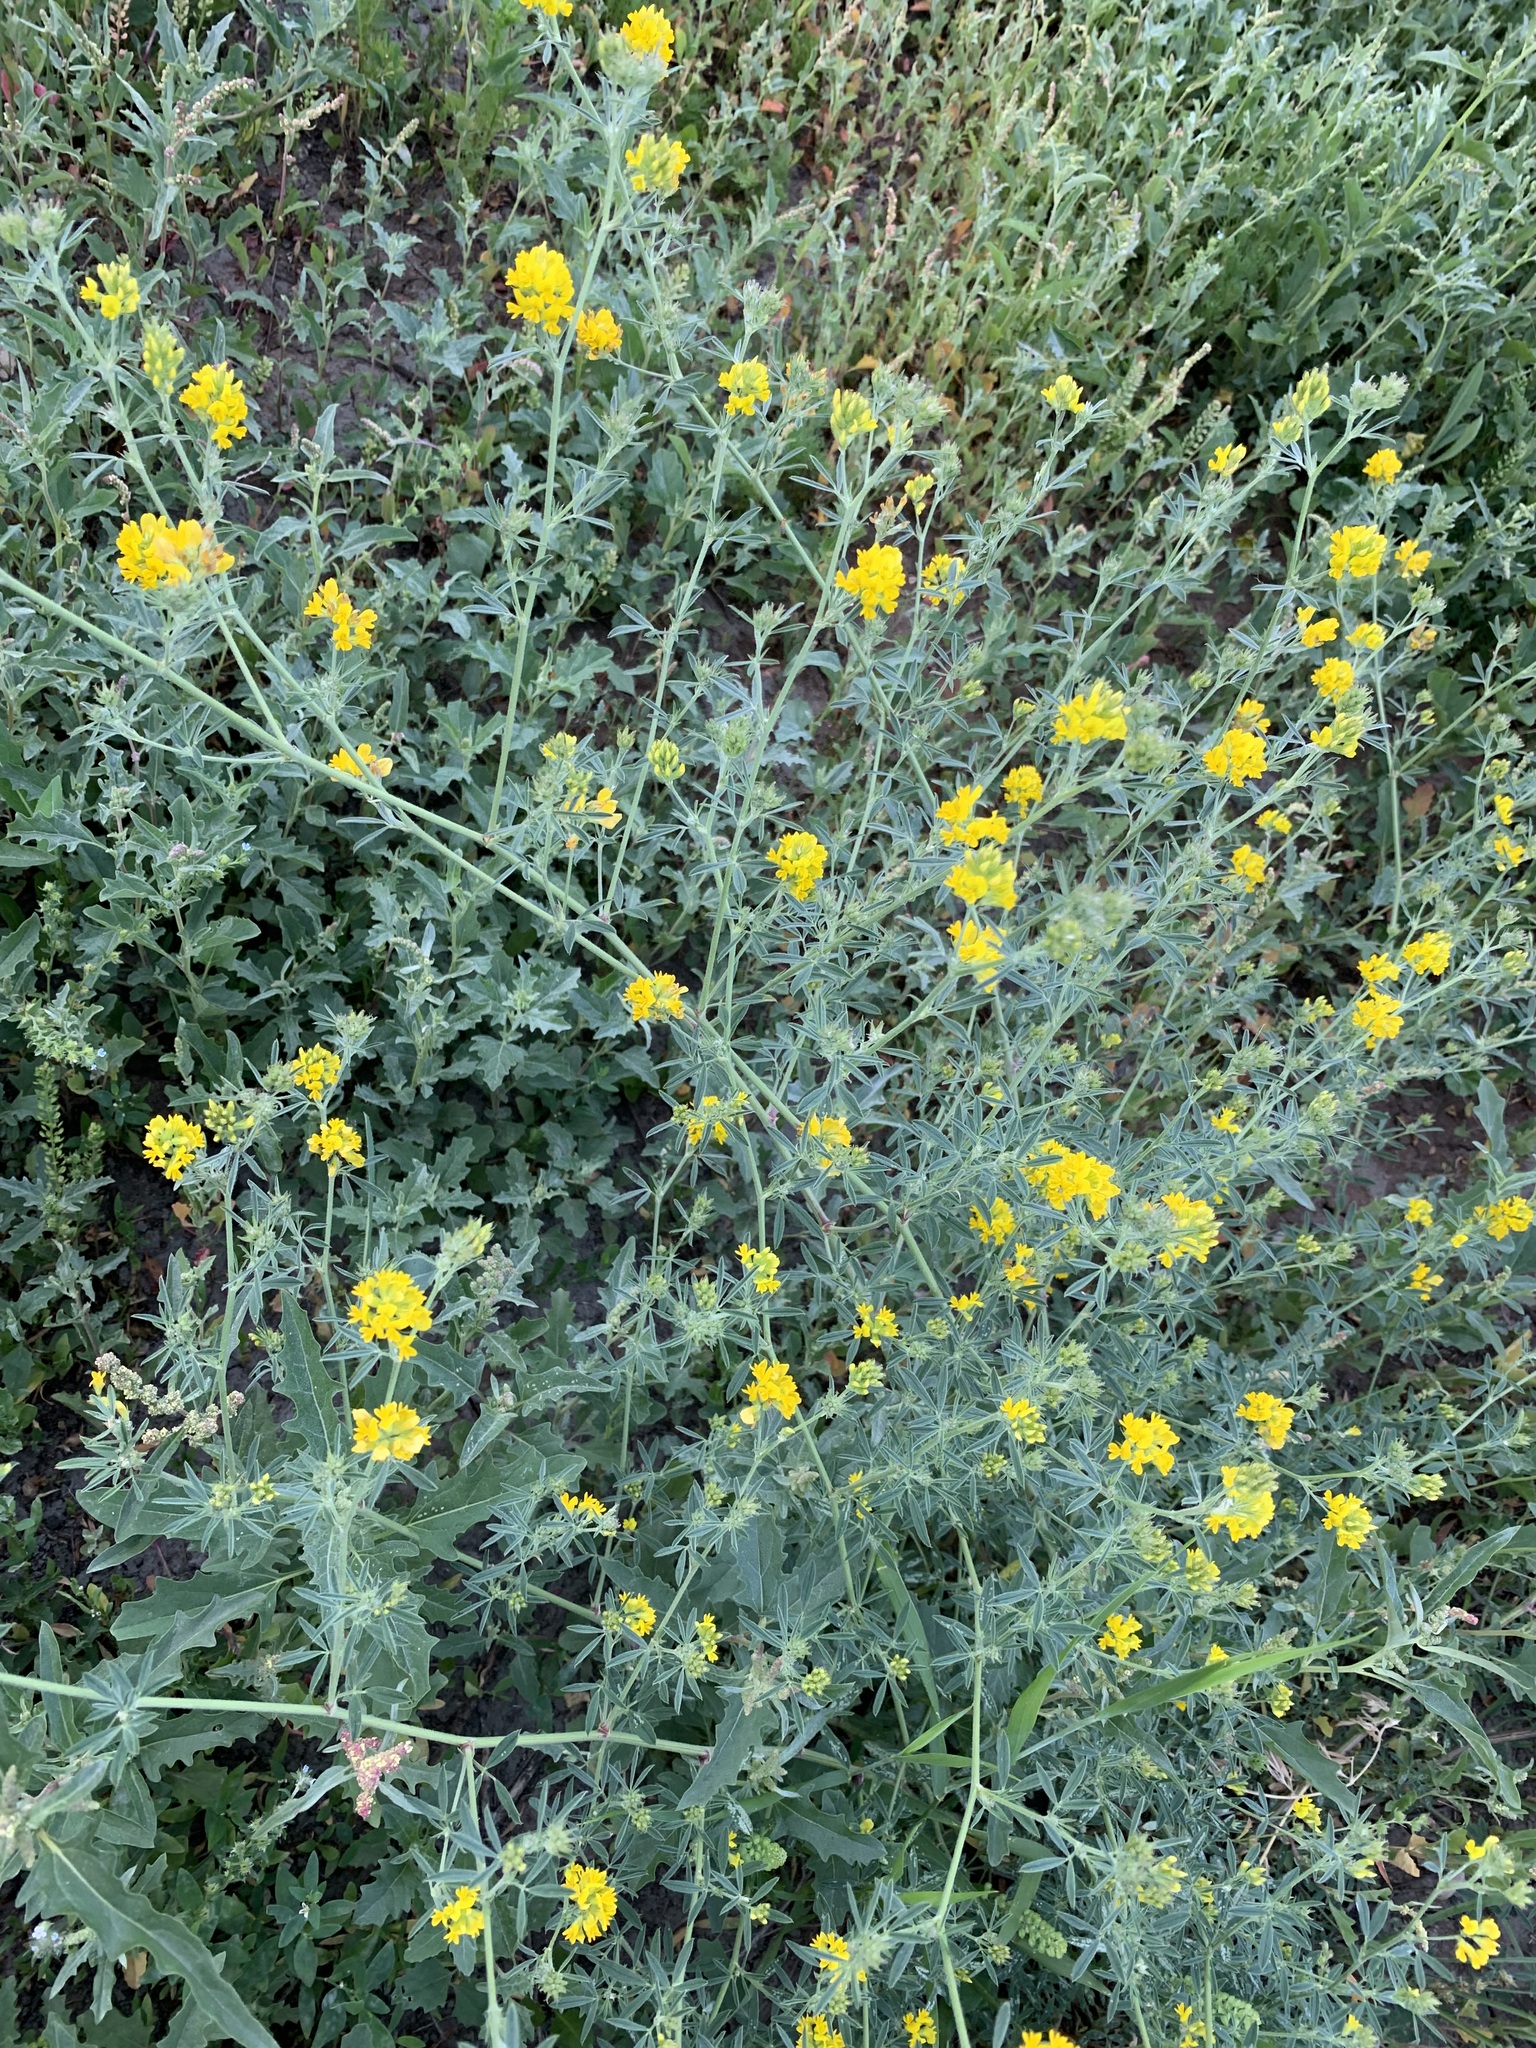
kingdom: Plantae
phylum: Tracheophyta
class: Magnoliopsida
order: Fabales
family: Fabaceae
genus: Medicago
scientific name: Medicago falcata
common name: Sickle medick
